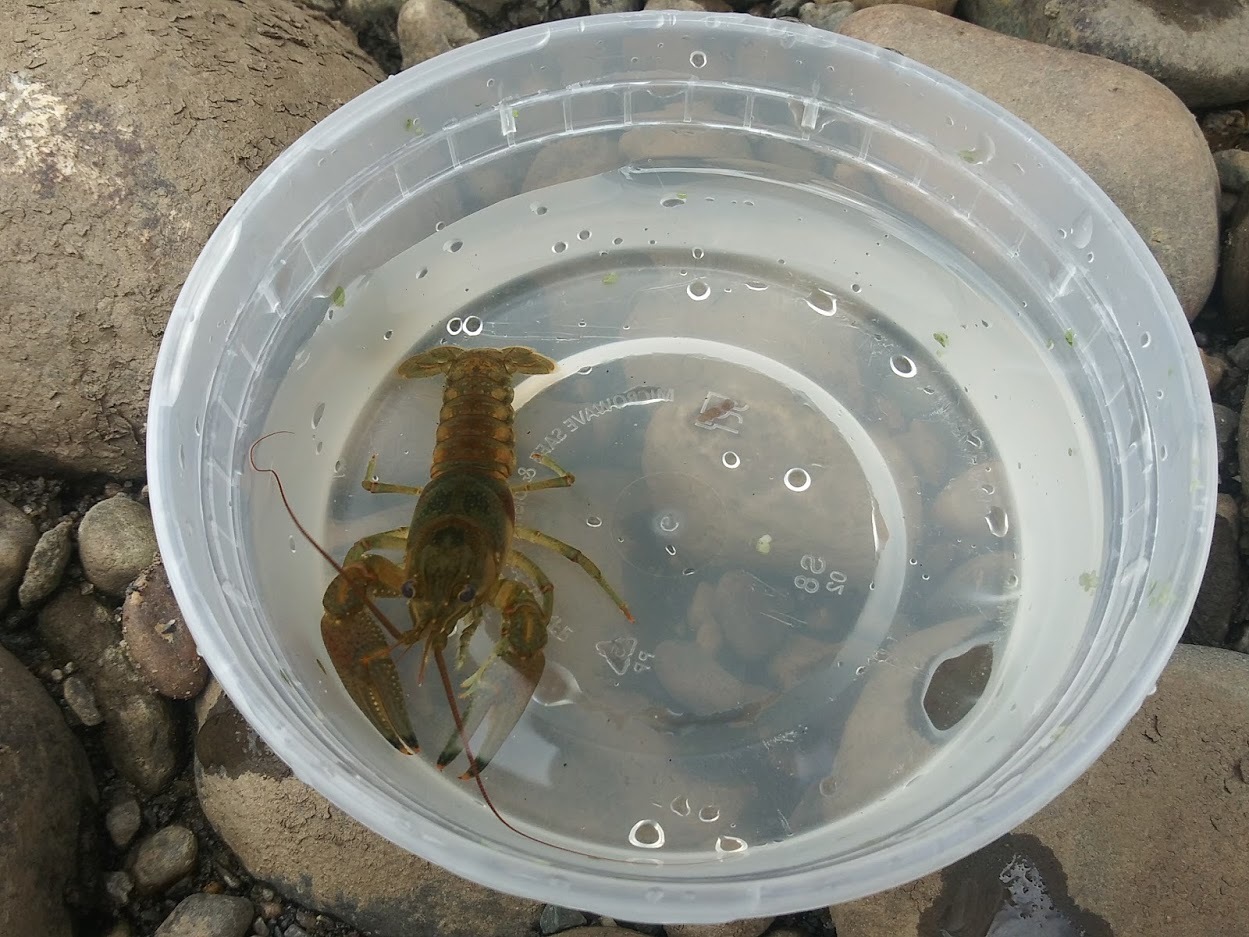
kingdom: Animalia
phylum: Arthropoda
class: Malacostraca
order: Decapoda
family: Cambaridae
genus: Faxonius
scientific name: Faxonius rusticus
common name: Rusty crayfish
